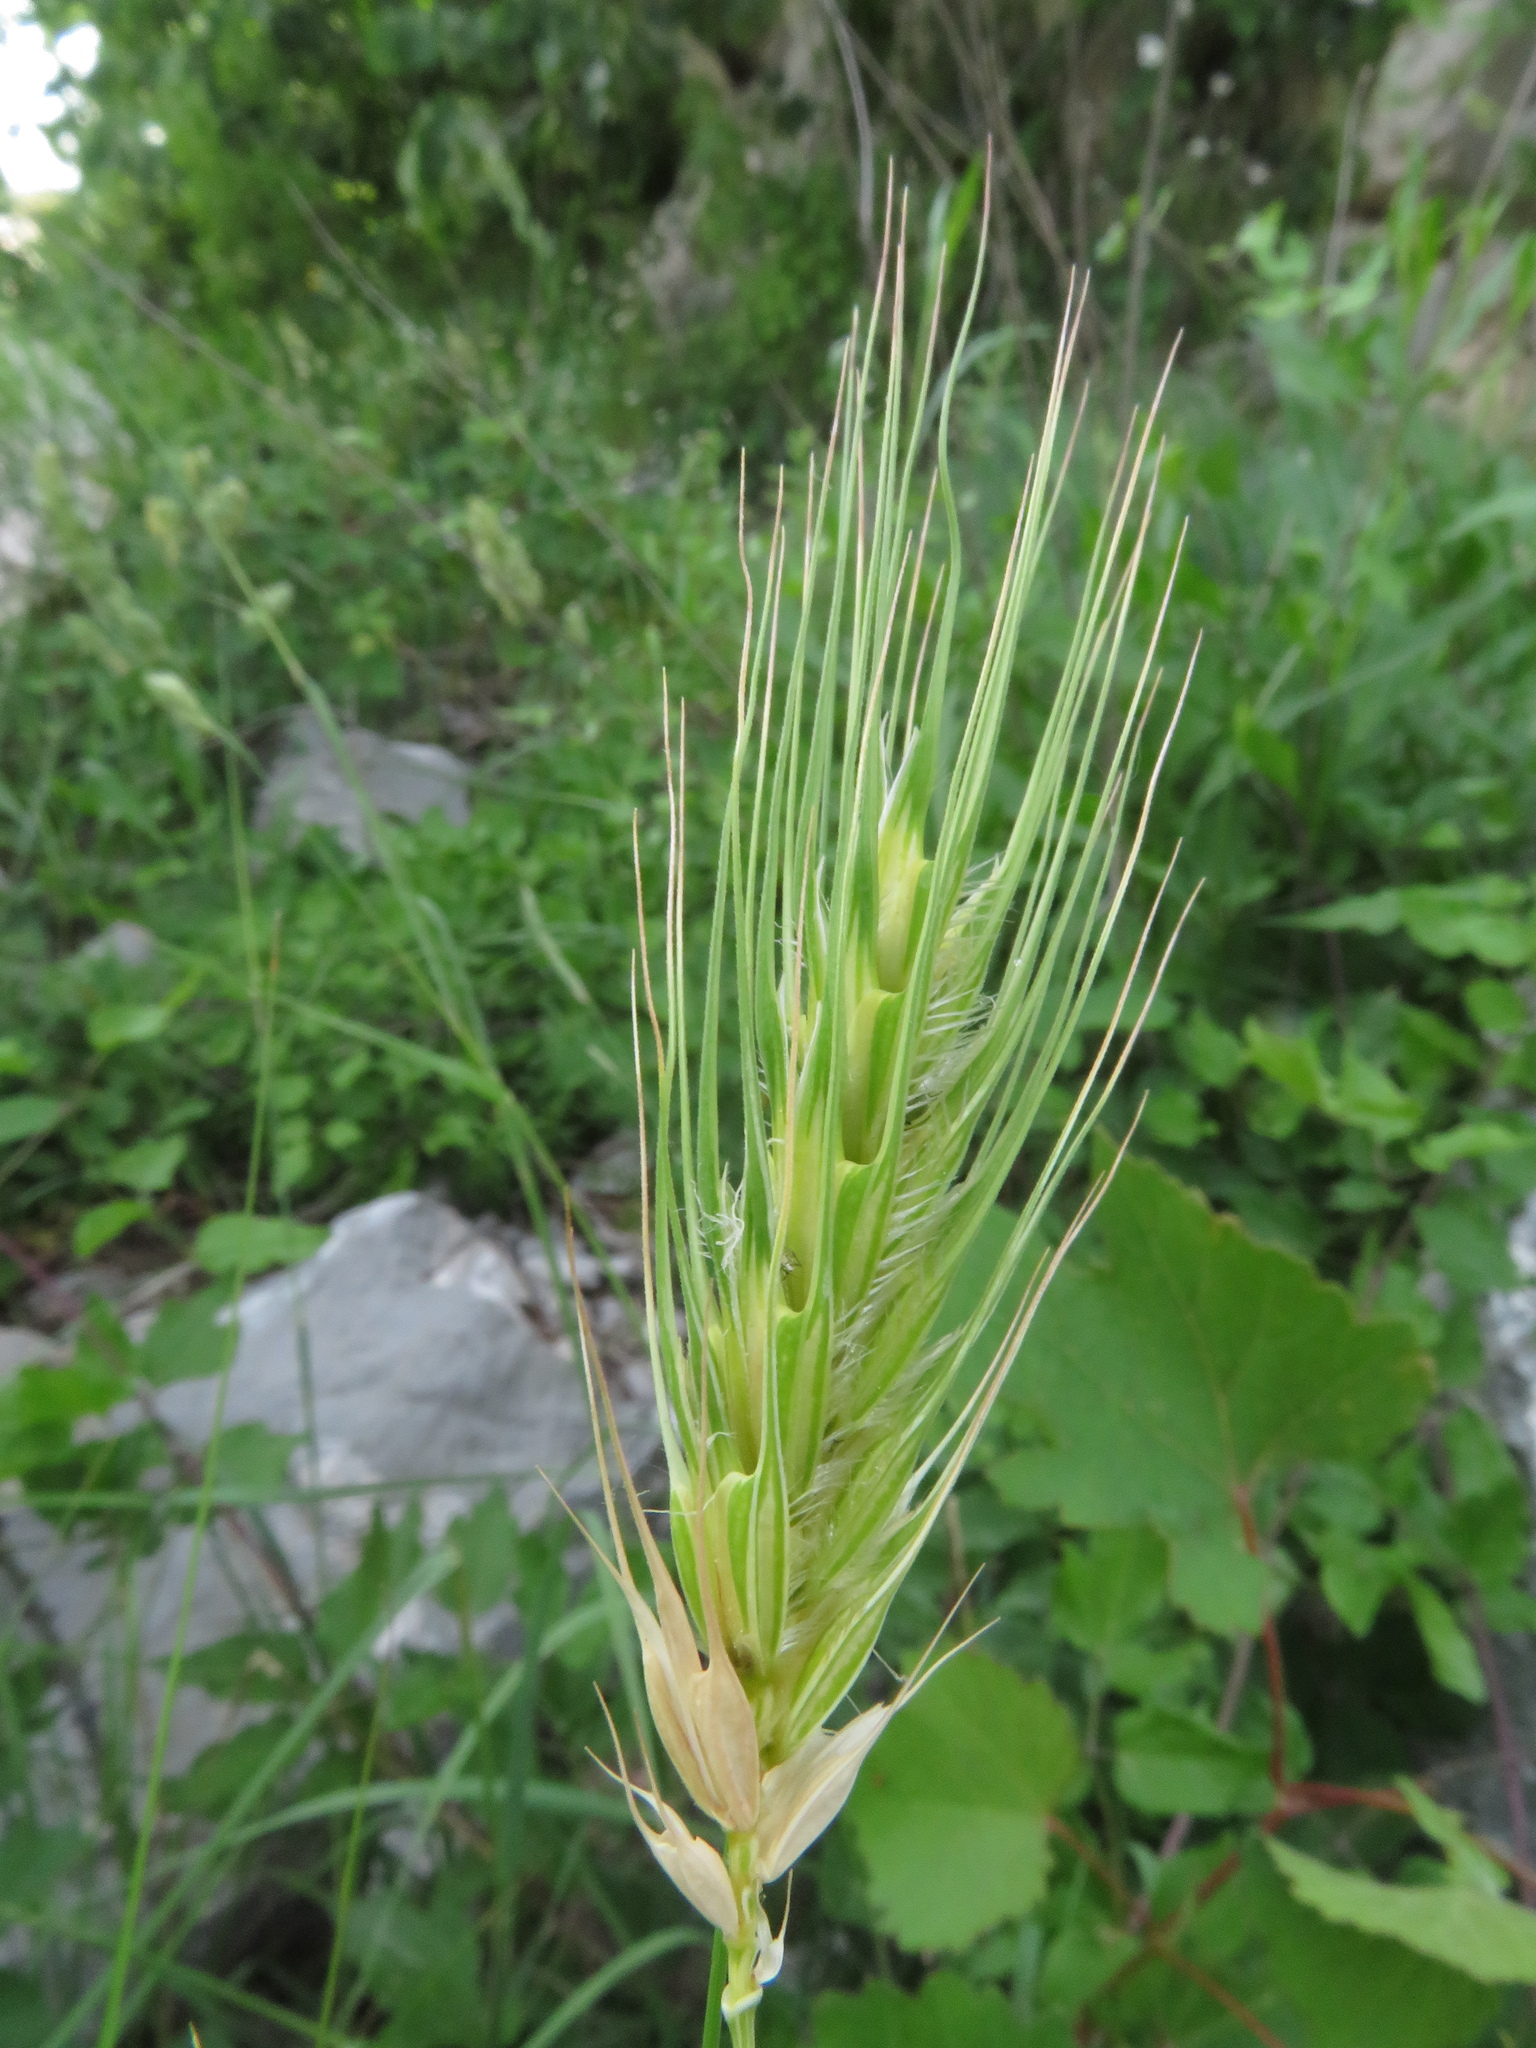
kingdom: Plantae
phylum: Tracheophyta
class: Liliopsida
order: Poales
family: Poaceae
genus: Dasypyrum
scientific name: Dasypyrum villosum
